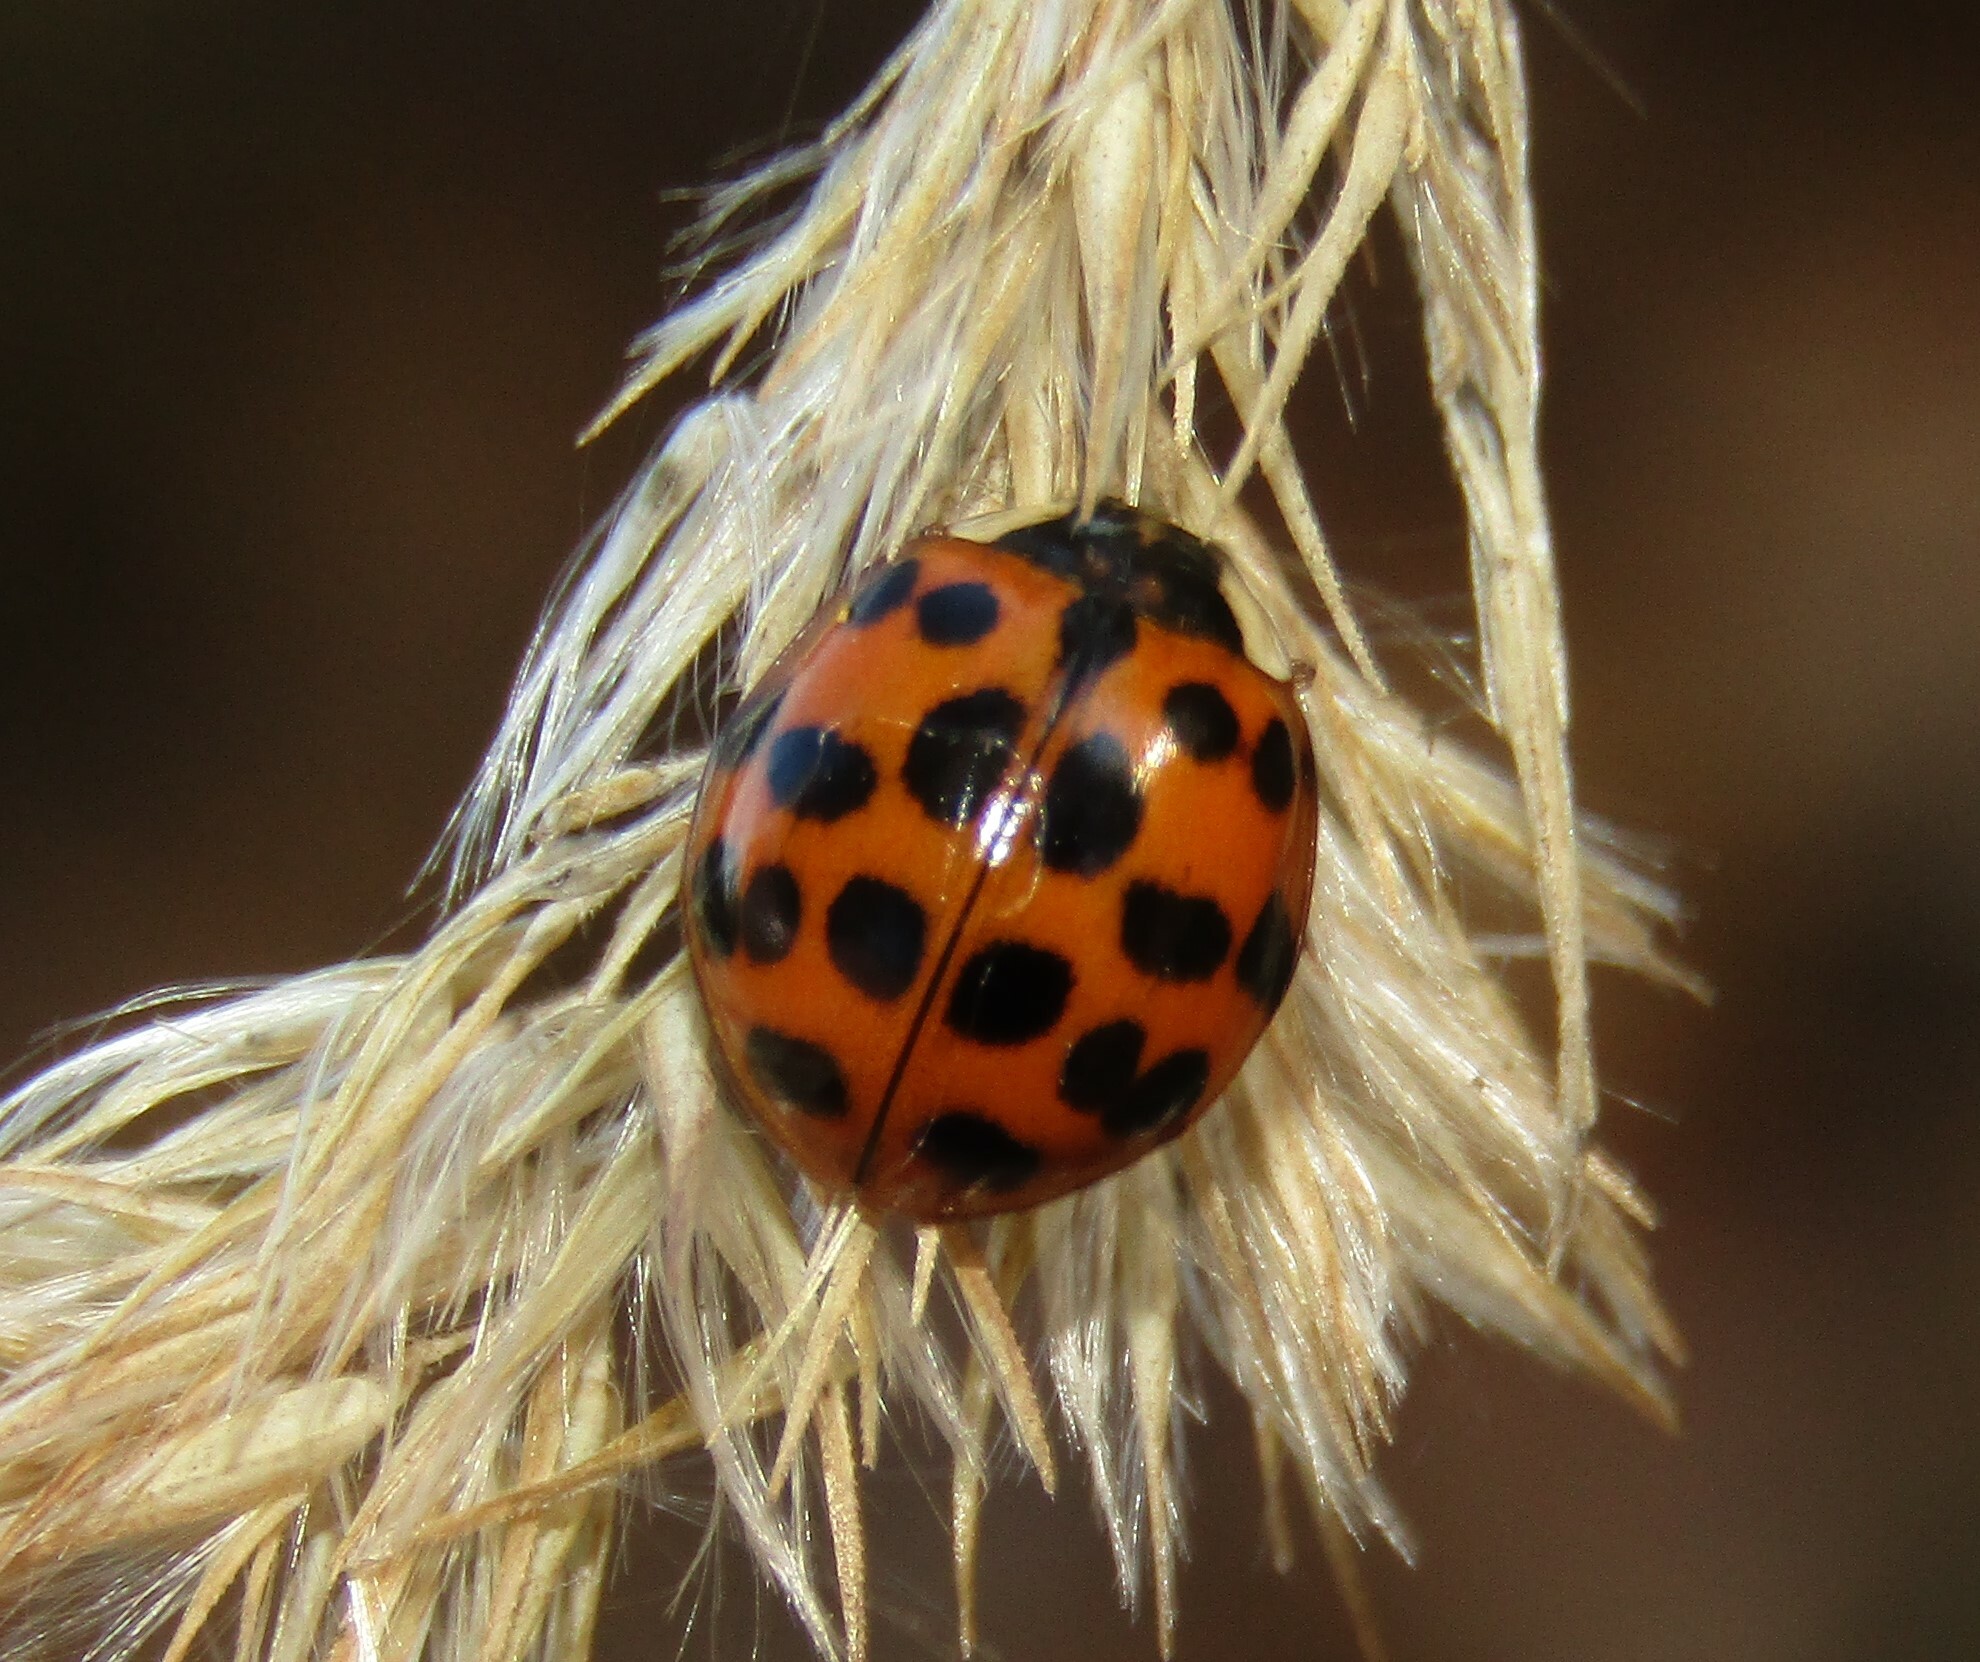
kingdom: Animalia
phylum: Arthropoda
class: Insecta
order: Coleoptera
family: Coccinellidae
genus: Harmonia
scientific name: Harmonia axyridis
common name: Harlequin ladybird
